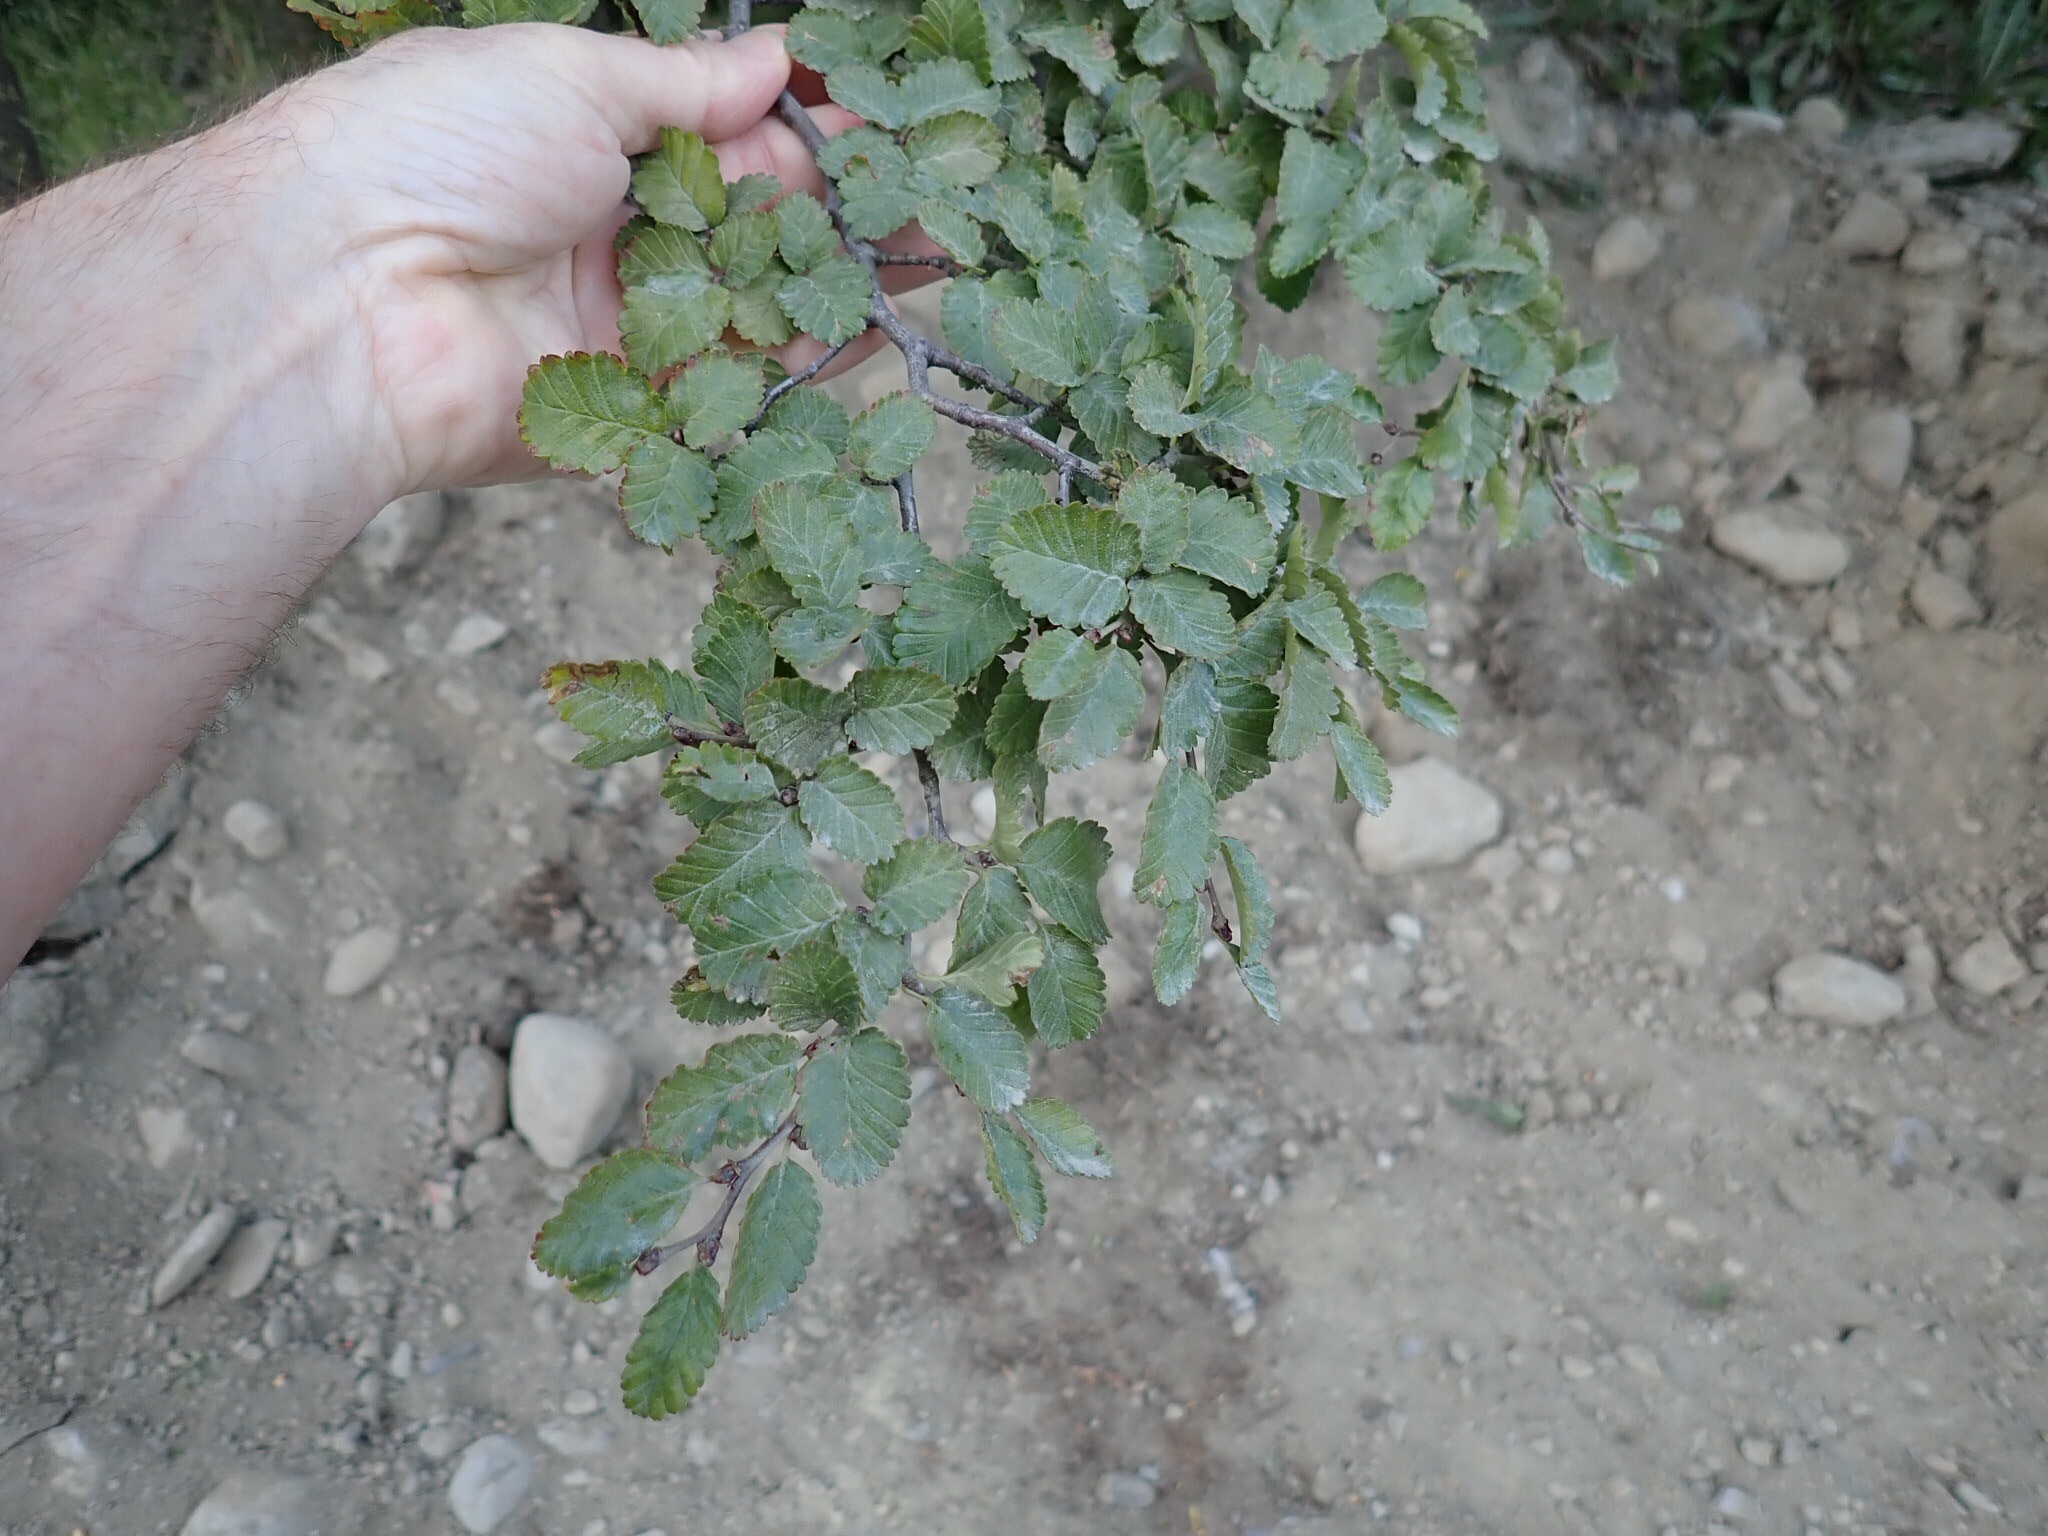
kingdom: Plantae
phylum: Tracheophyta
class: Magnoliopsida
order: Fagales
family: Nothofagaceae
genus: Nothofagus
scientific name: Nothofagus pumilio
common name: Lenga beech
